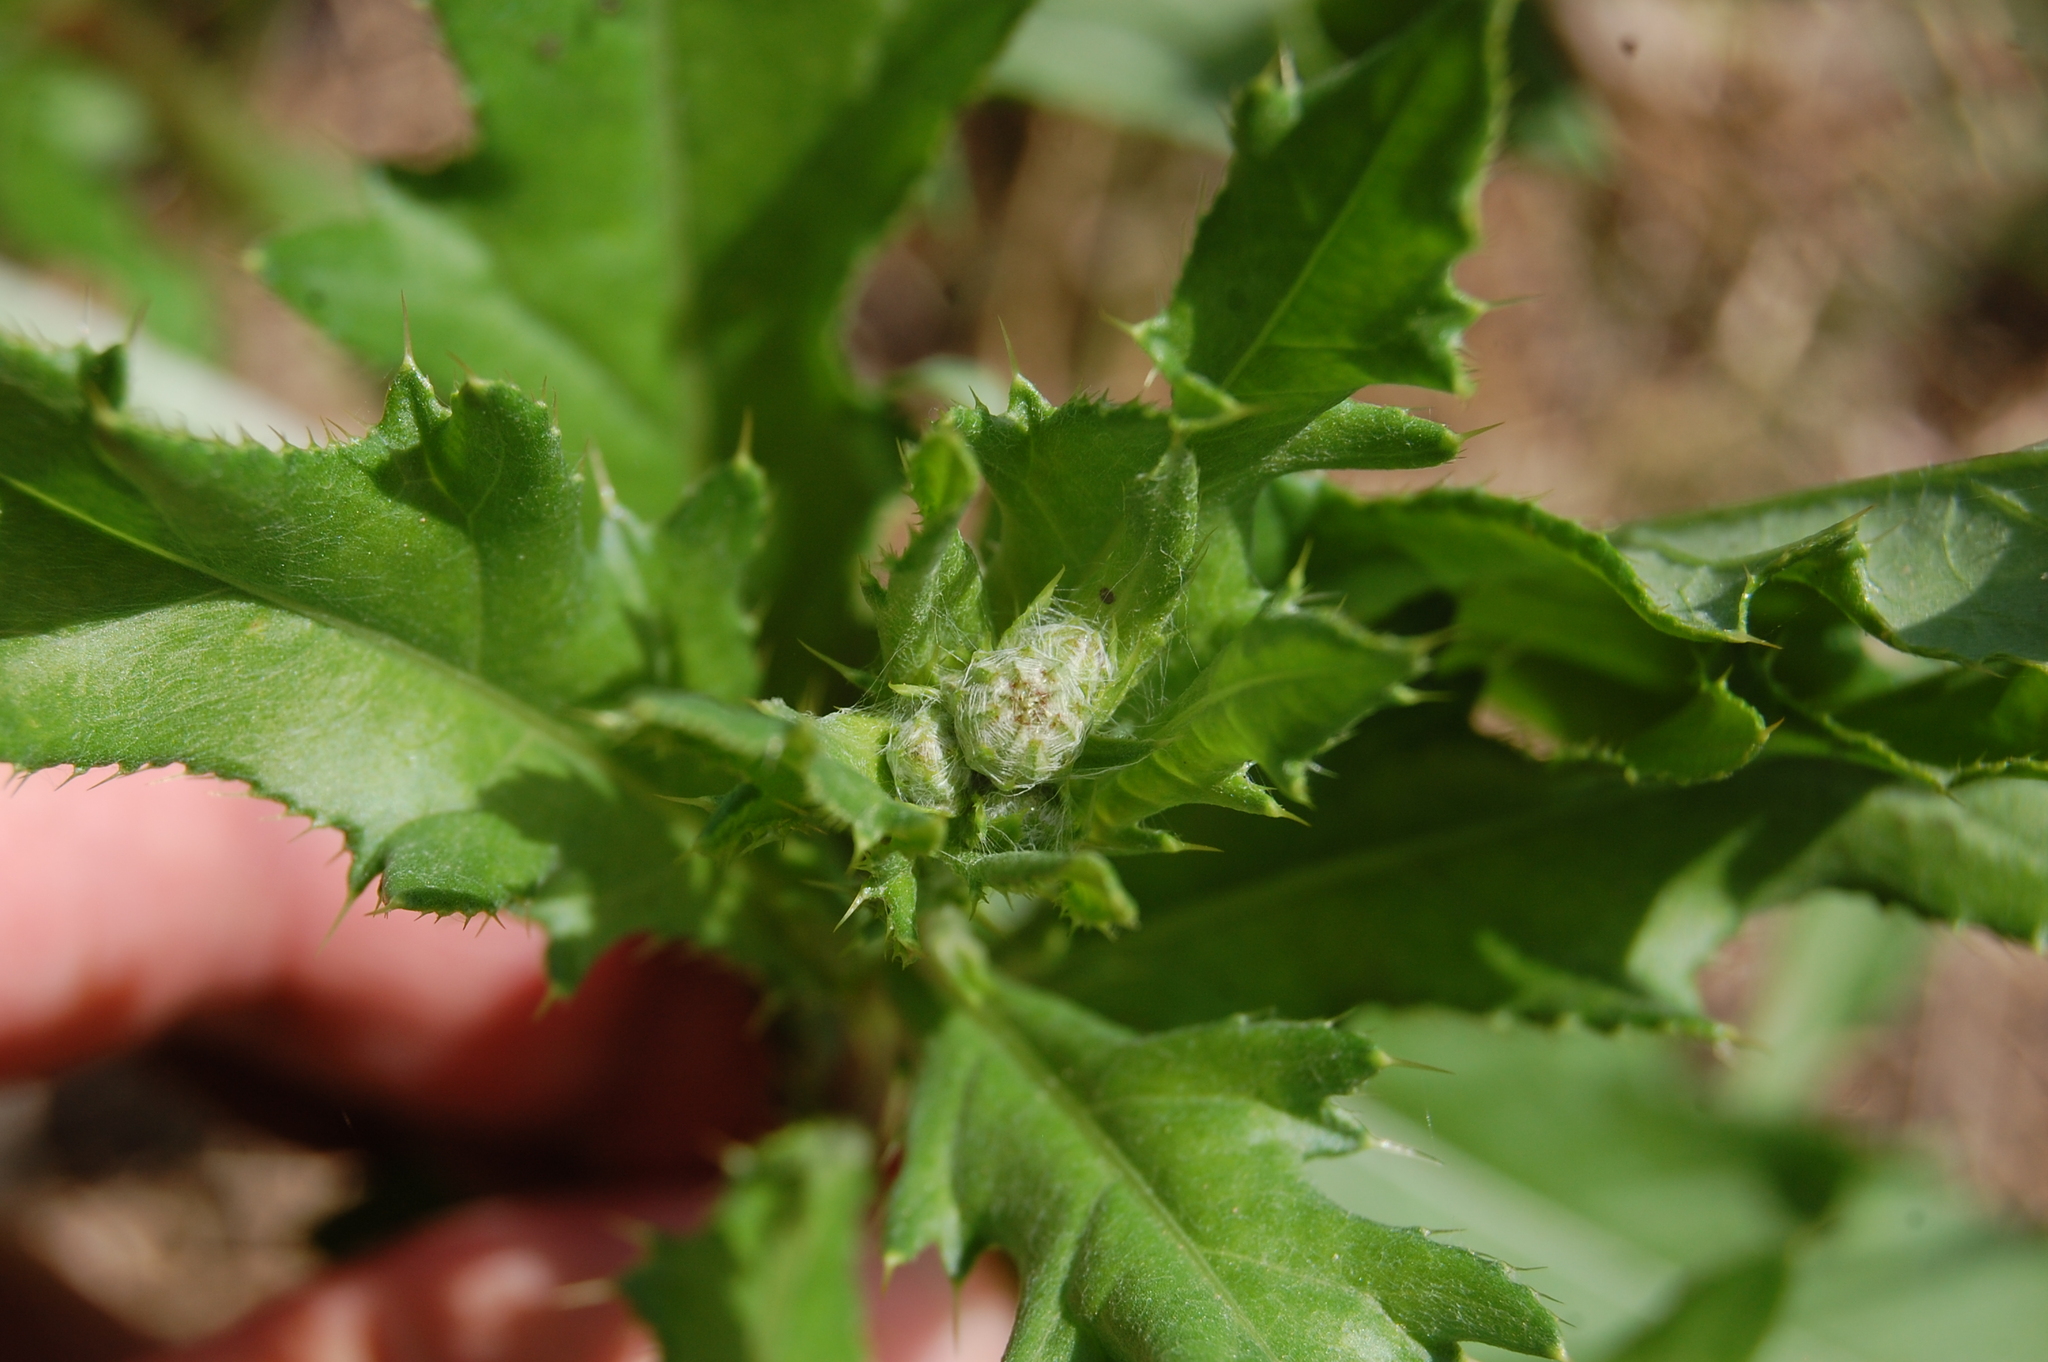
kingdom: Plantae
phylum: Tracheophyta
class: Magnoliopsida
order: Asterales
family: Asteraceae
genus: Cirsium
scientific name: Cirsium arvense
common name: Creeping thistle
